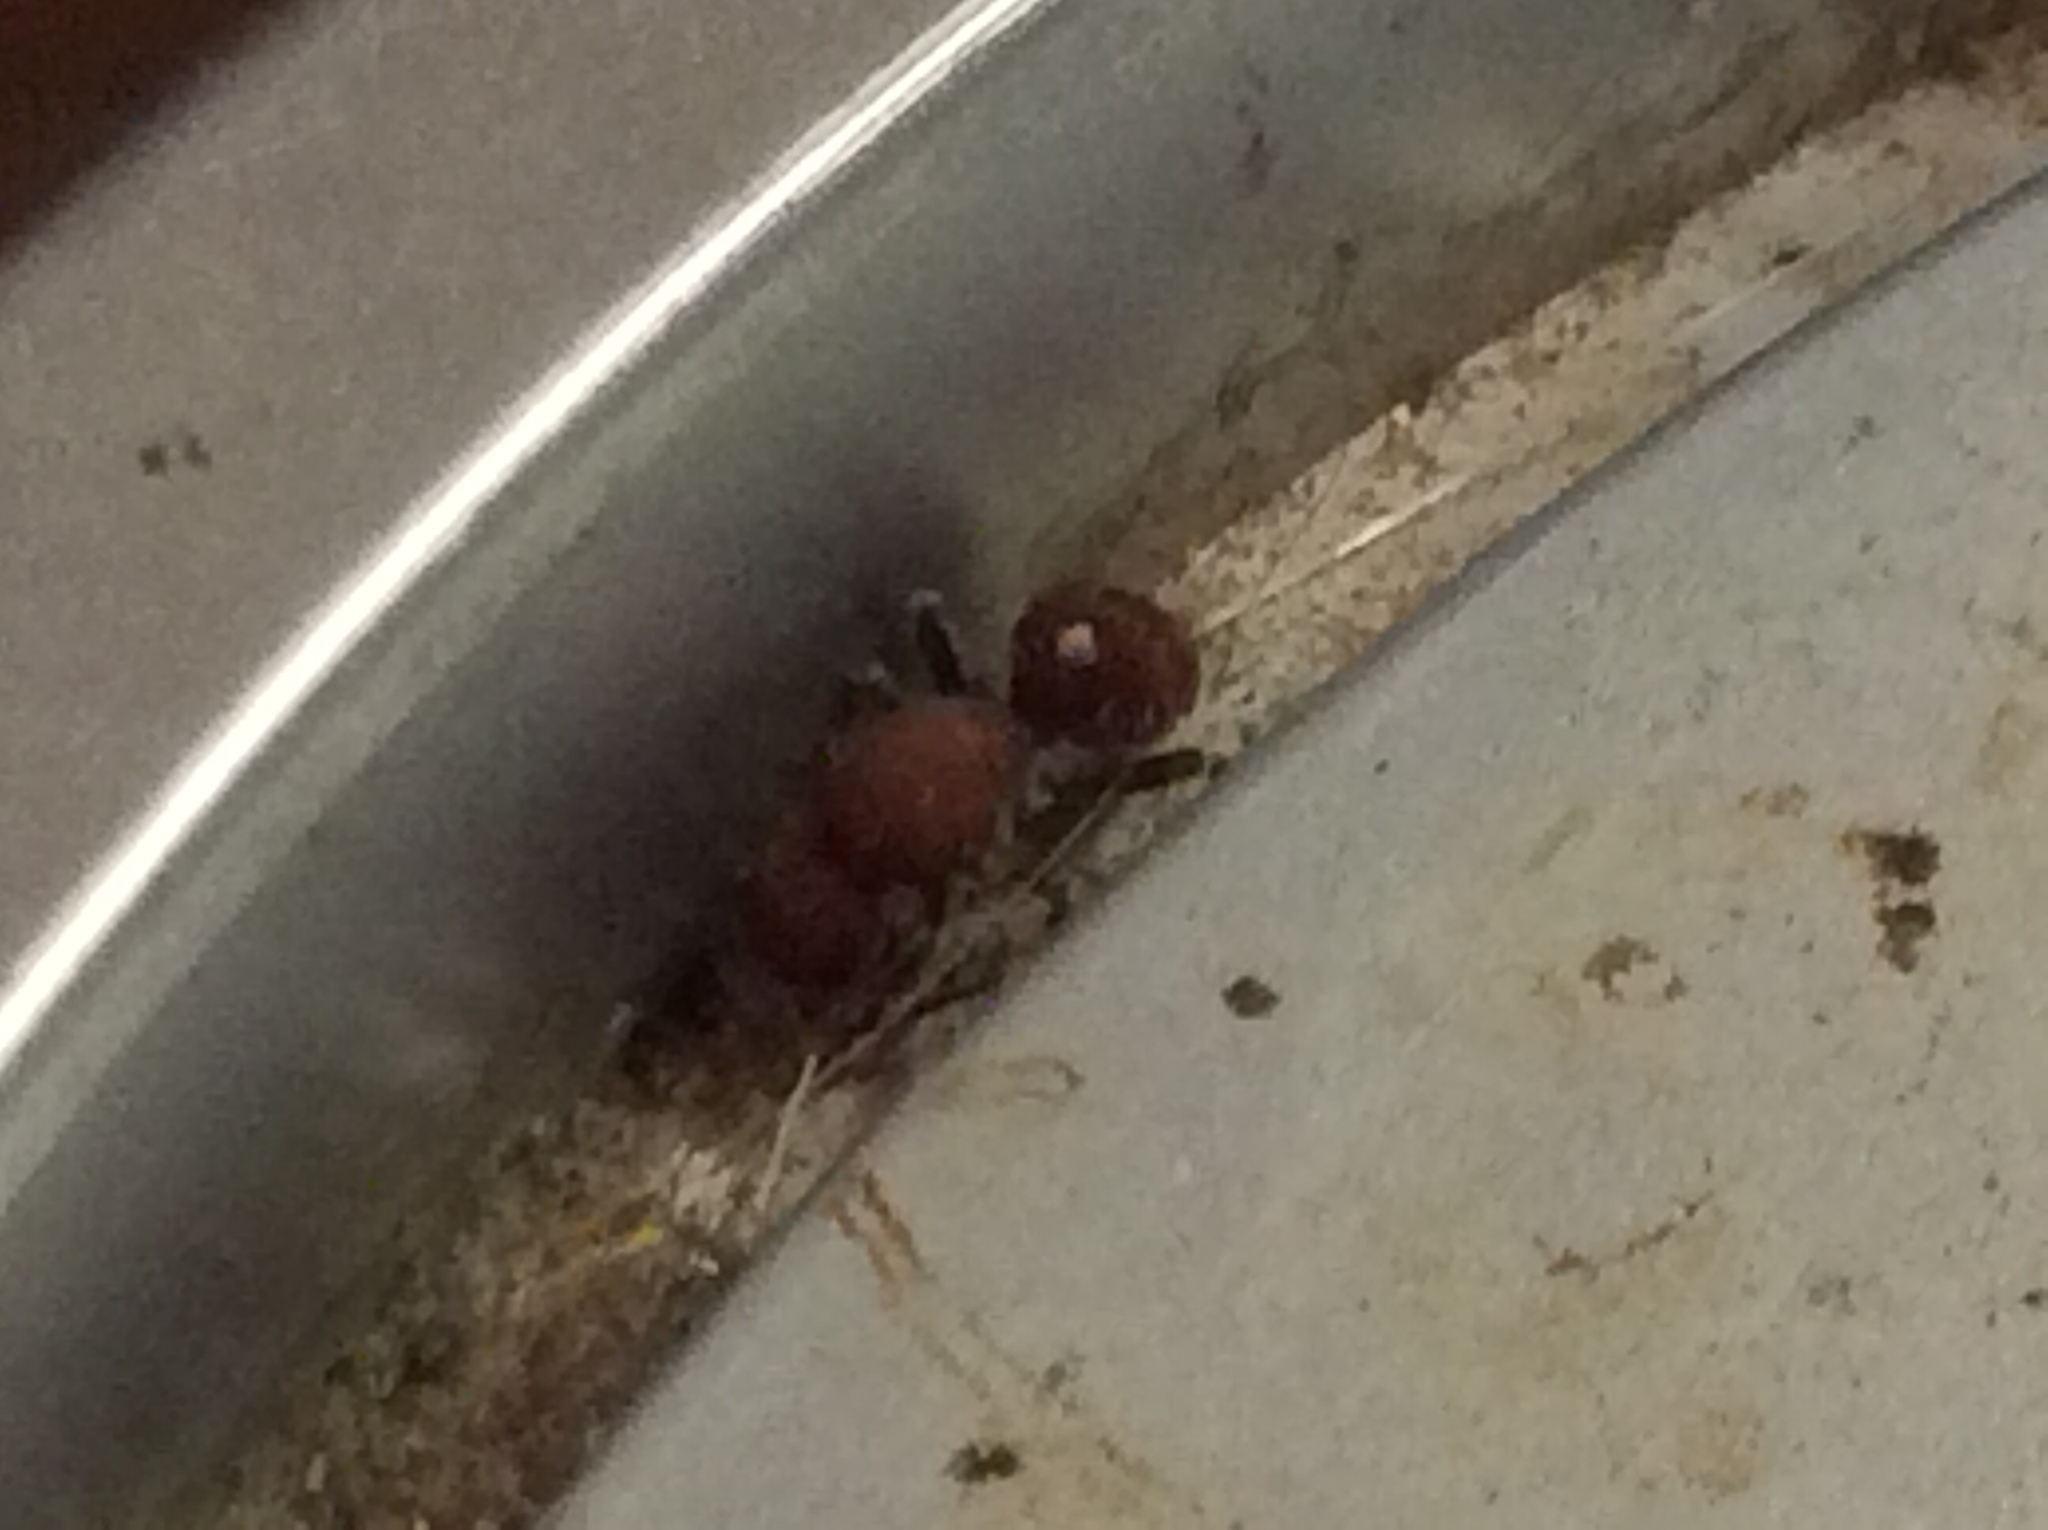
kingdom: Animalia
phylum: Arthropoda
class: Insecta
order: Hymenoptera
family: Mutillidae
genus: Sphaeropthalma
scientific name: Sphaeropthalma
